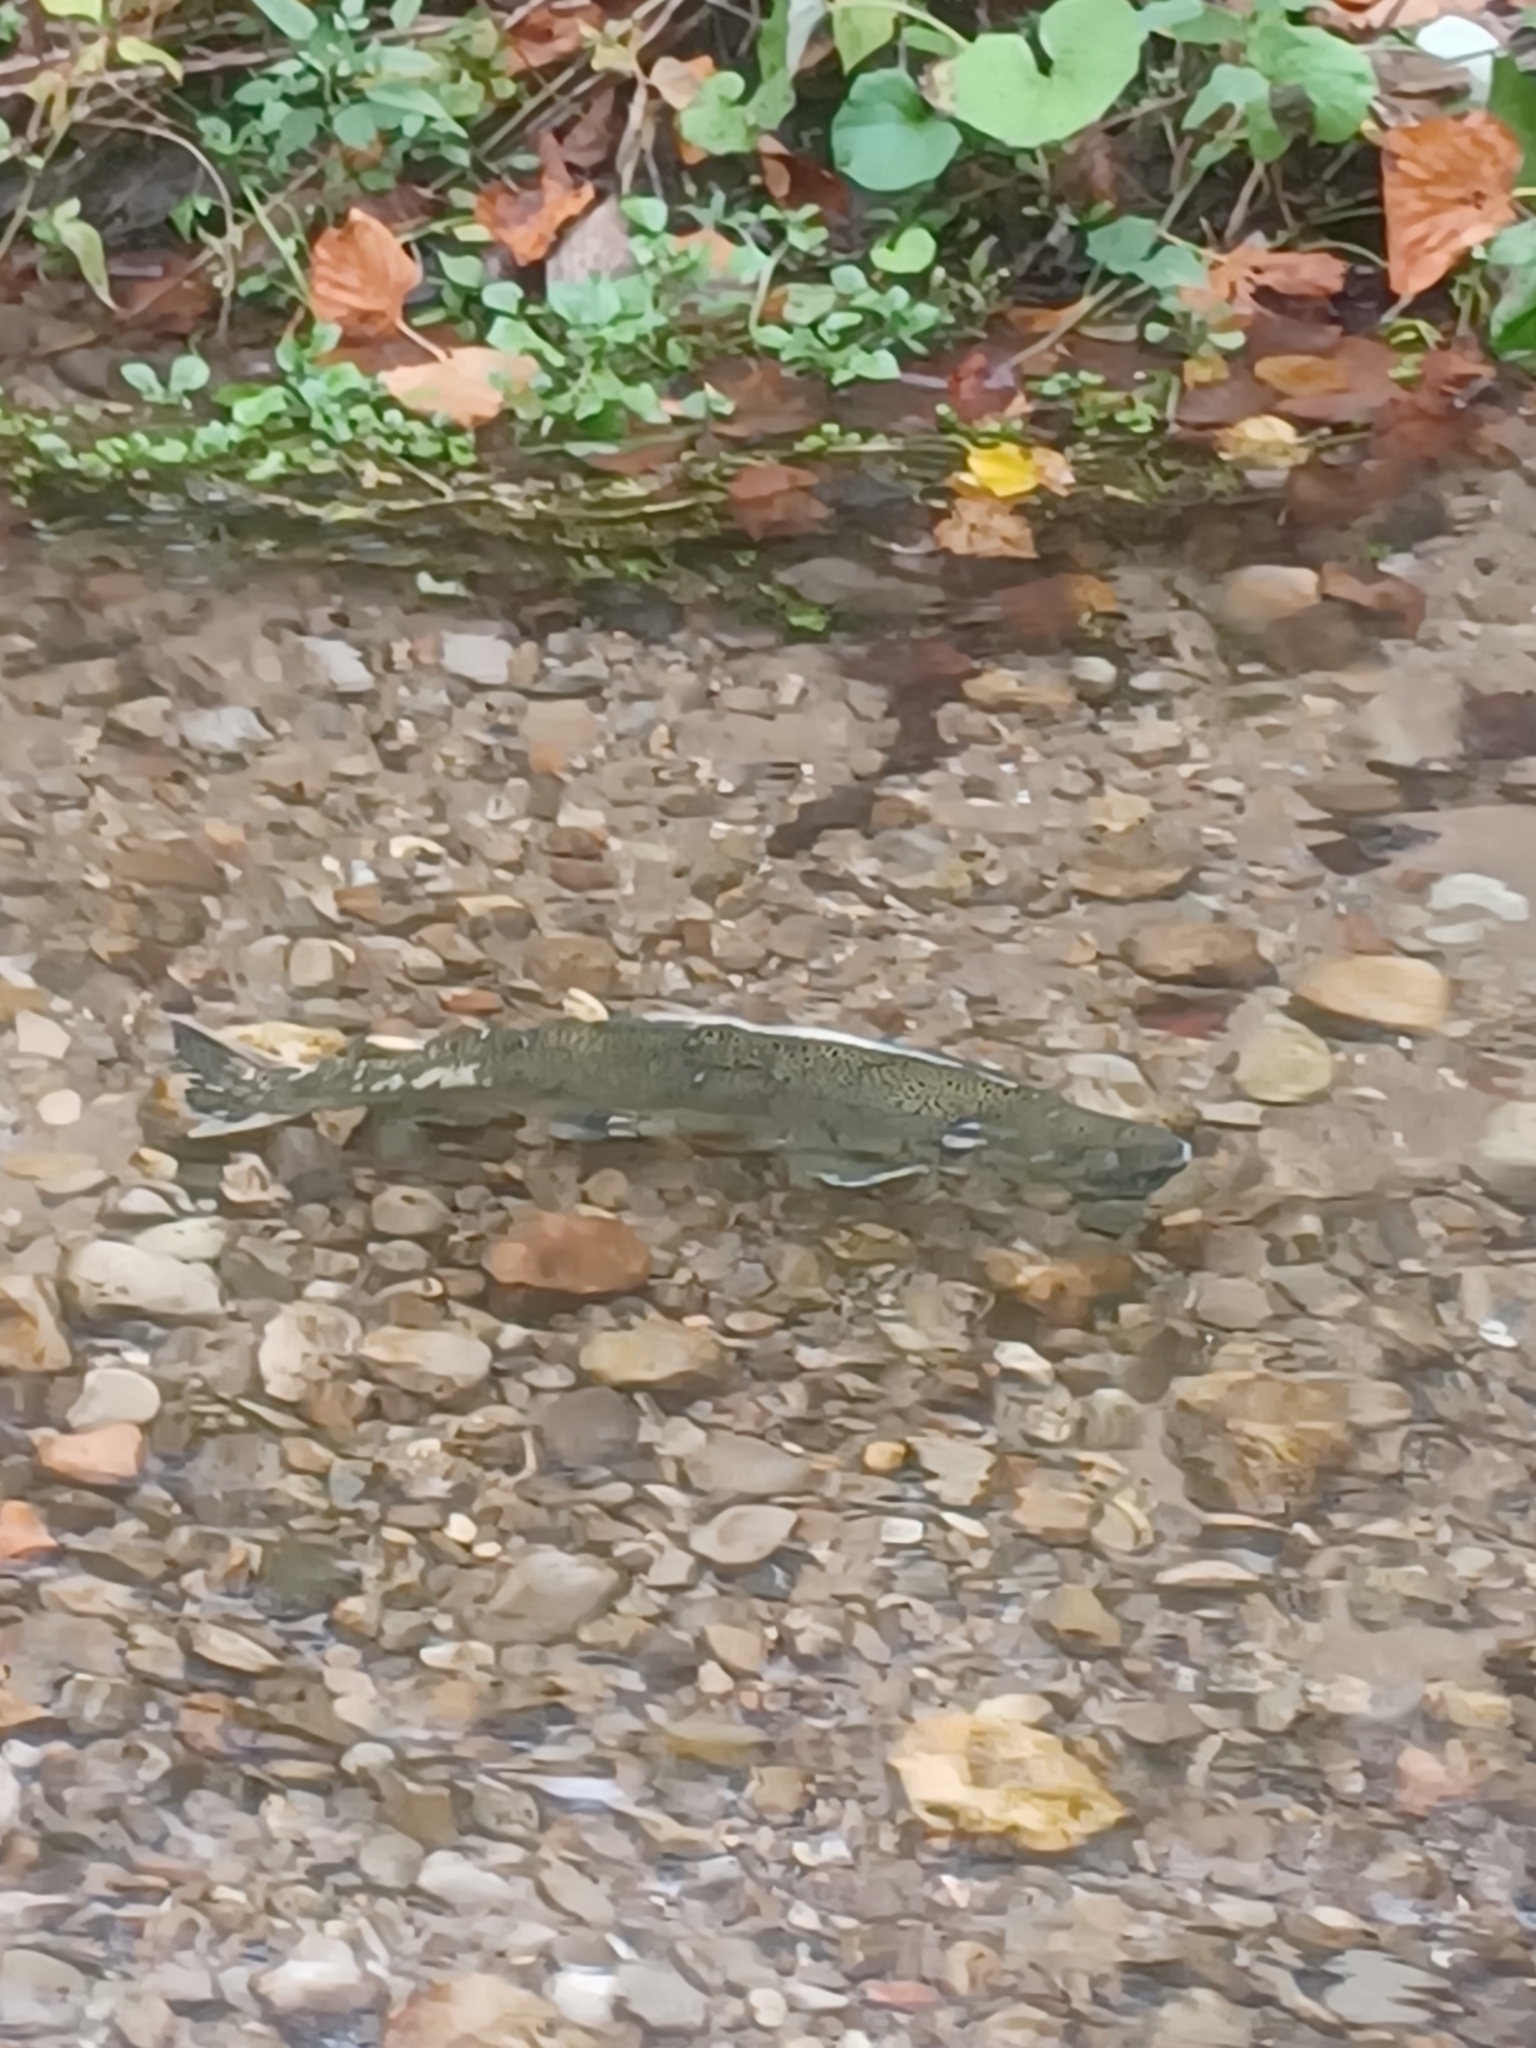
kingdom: Animalia
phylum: Chordata
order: Salmoniformes
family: Salmonidae
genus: Oncorhynchus
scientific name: Oncorhynchus tshawytscha
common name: Chinook salmon
